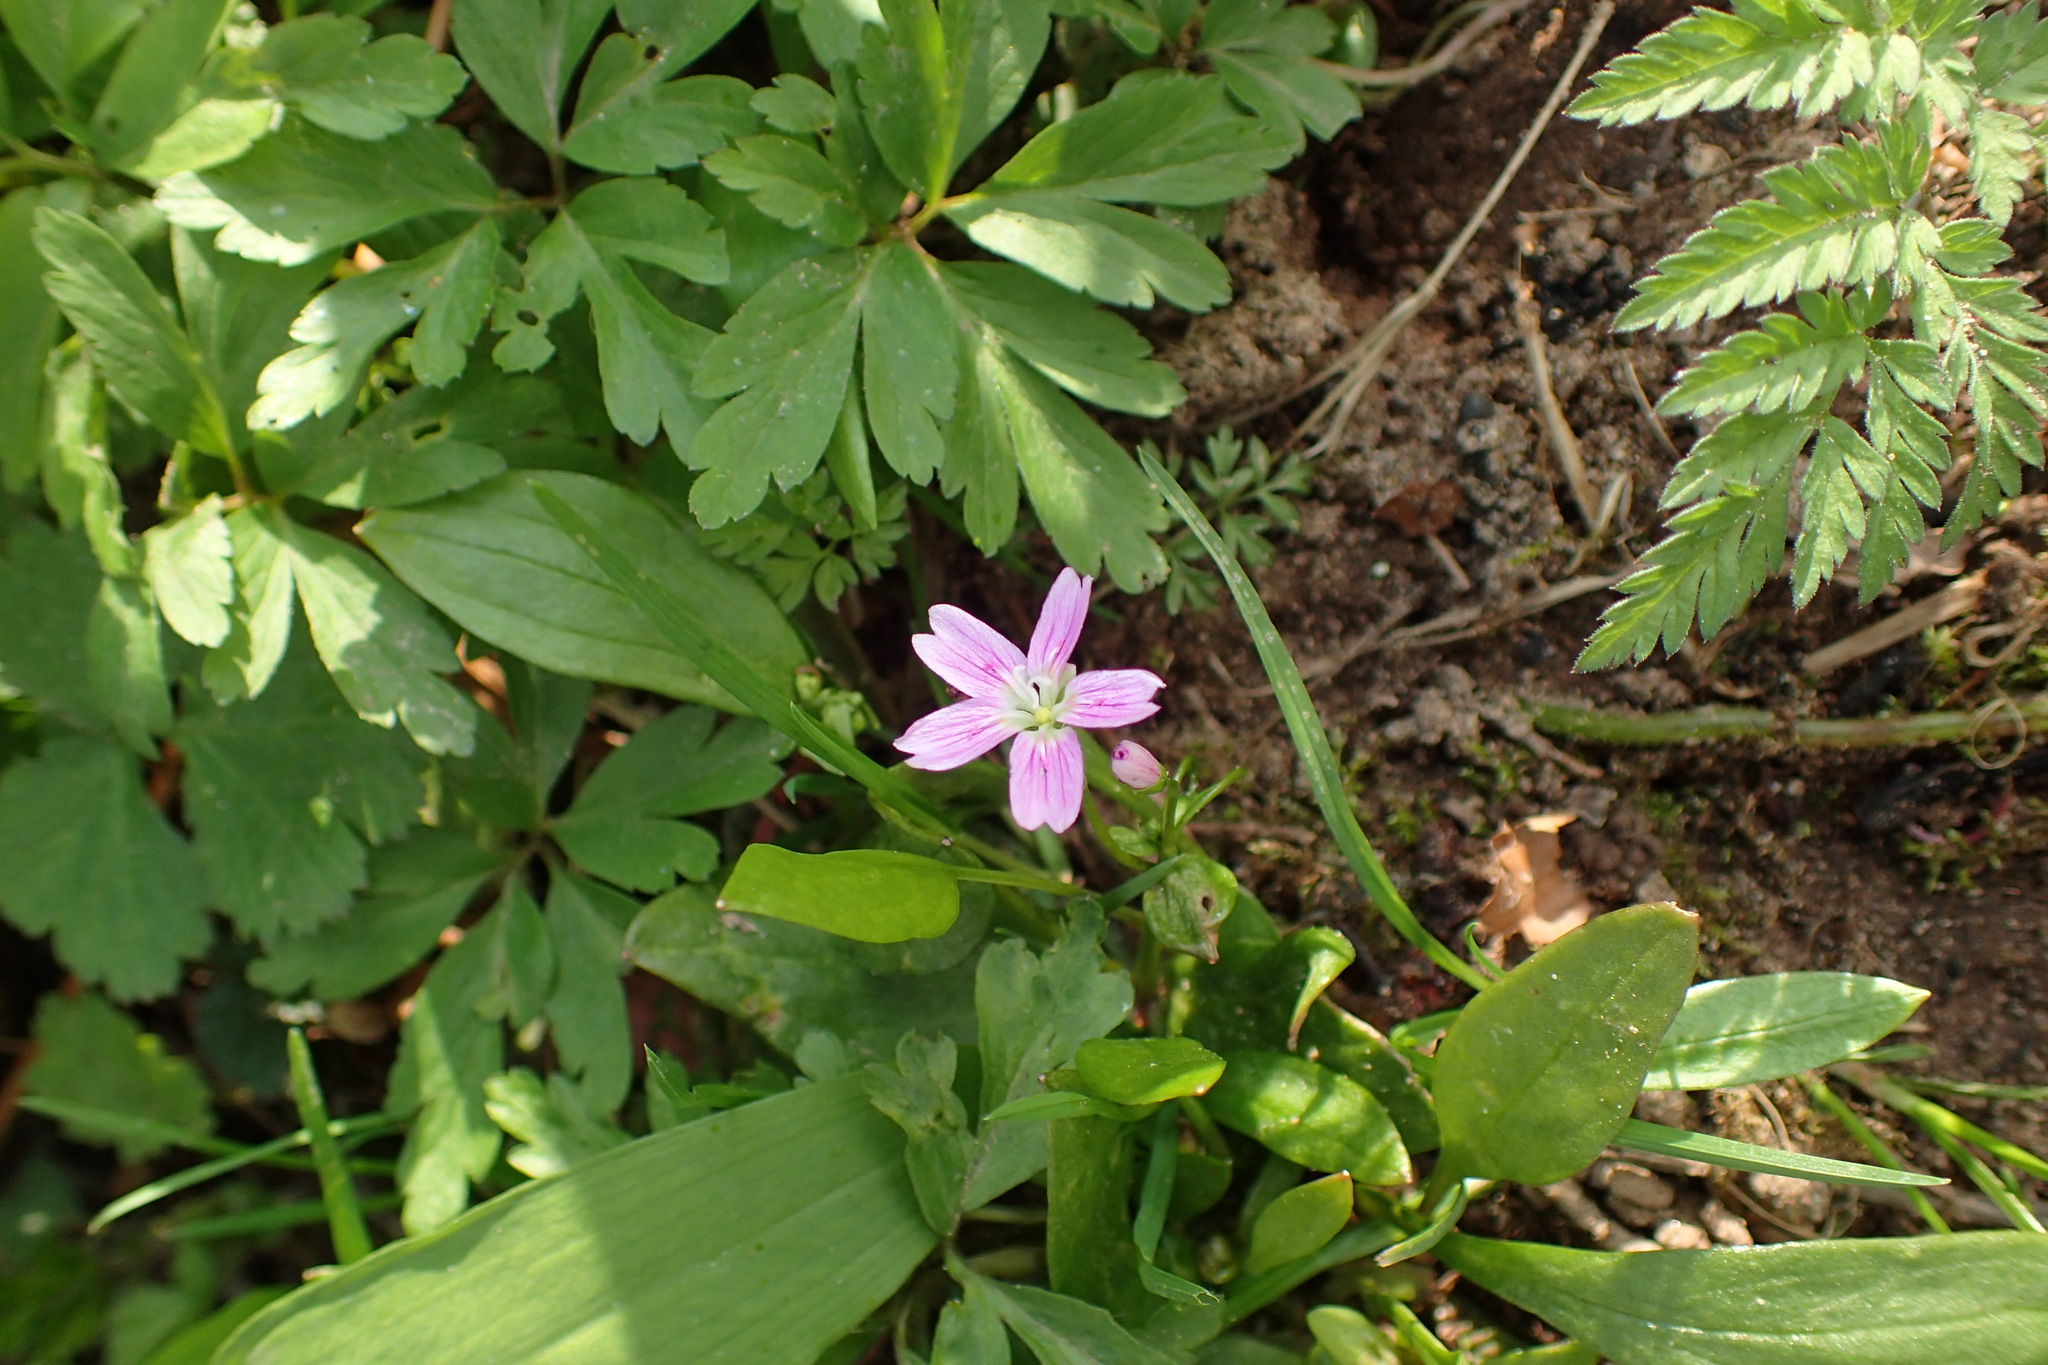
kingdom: Plantae
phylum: Tracheophyta
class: Magnoliopsida
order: Caryophyllales
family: Montiaceae
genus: Claytonia
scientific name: Claytonia sibirica
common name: Pink purslane
